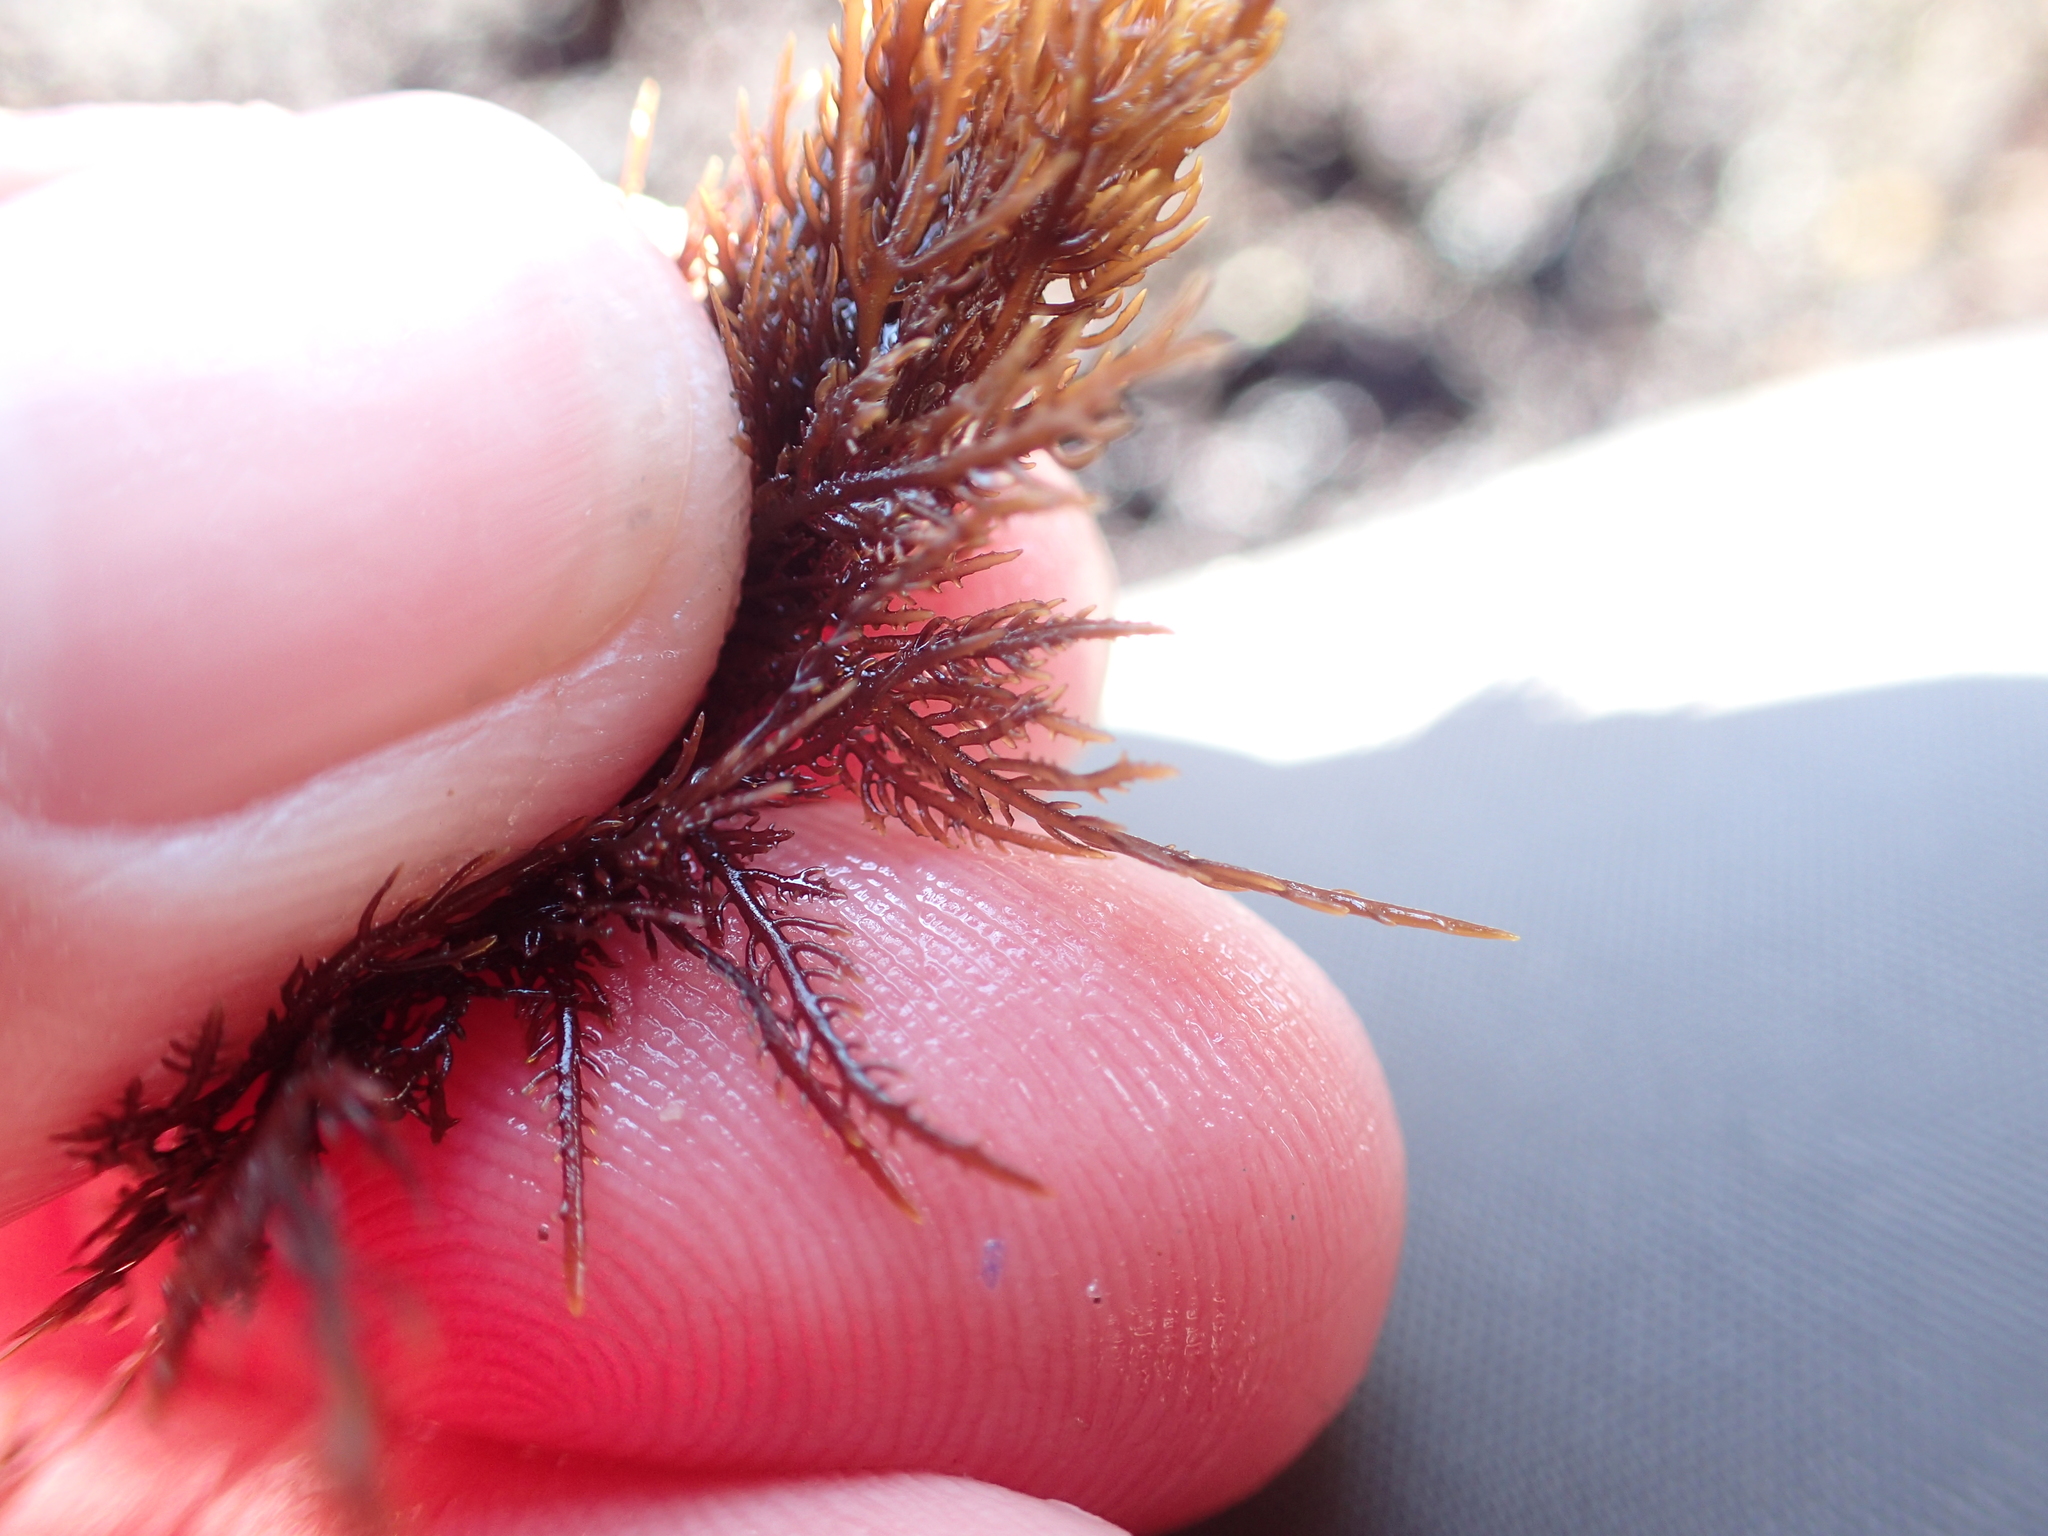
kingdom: Plantae
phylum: Rhodophyta
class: Florideophyceae
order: Gelidiales
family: Gelidiaceae
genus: Gelidium
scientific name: Gelidium coulteri
